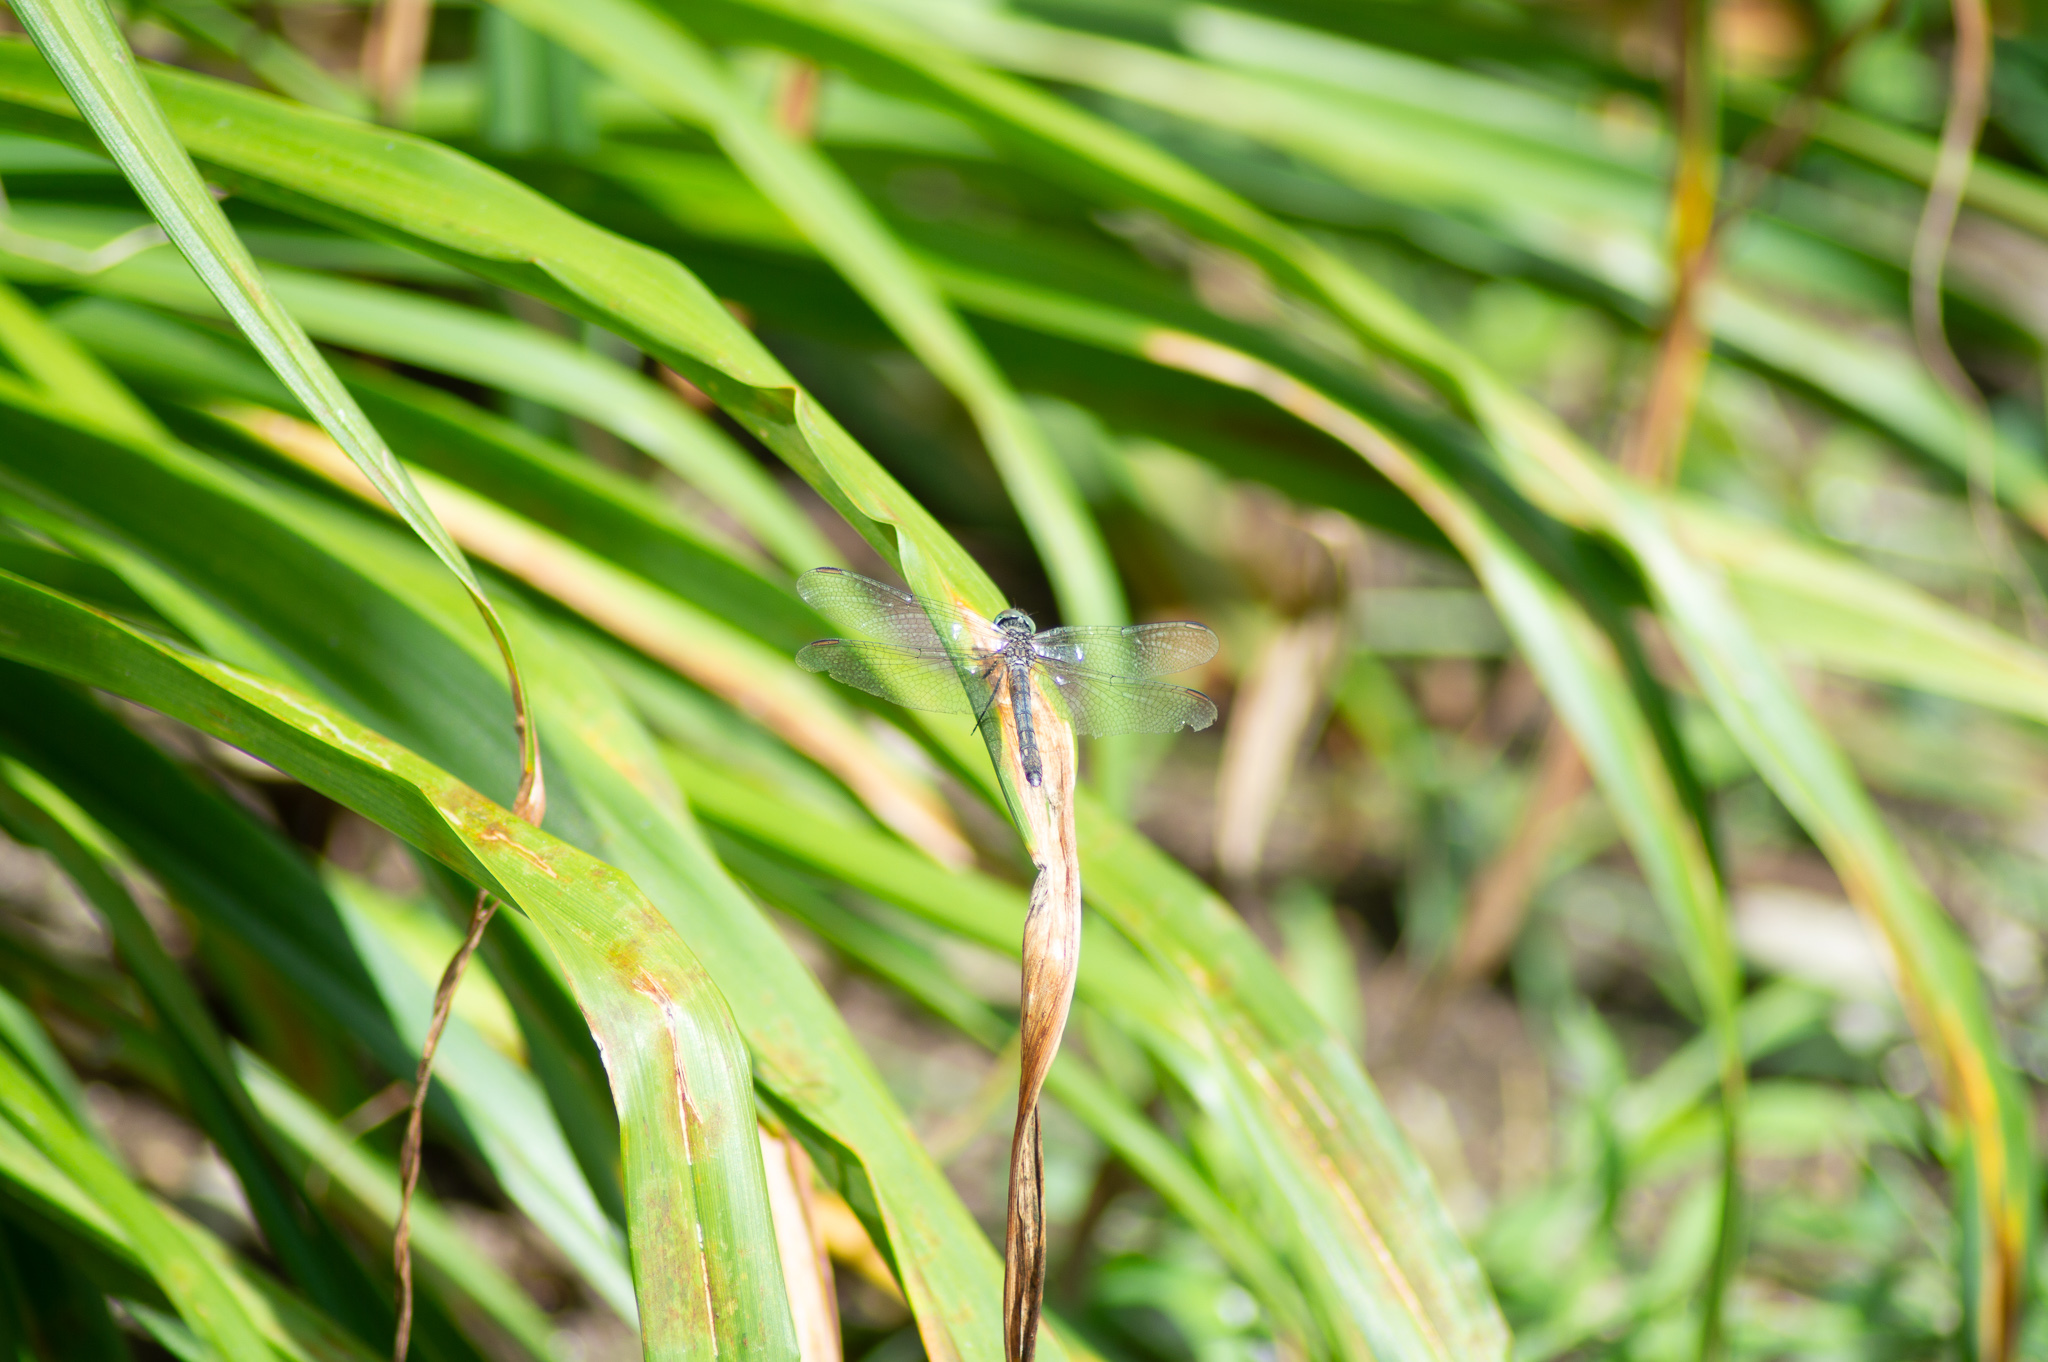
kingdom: Animalia
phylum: Arthropoda
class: Insecta
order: Odonata
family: Libellulidae
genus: Pachydiplax
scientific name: Pachydiplax longipennis
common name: Blue dasher
